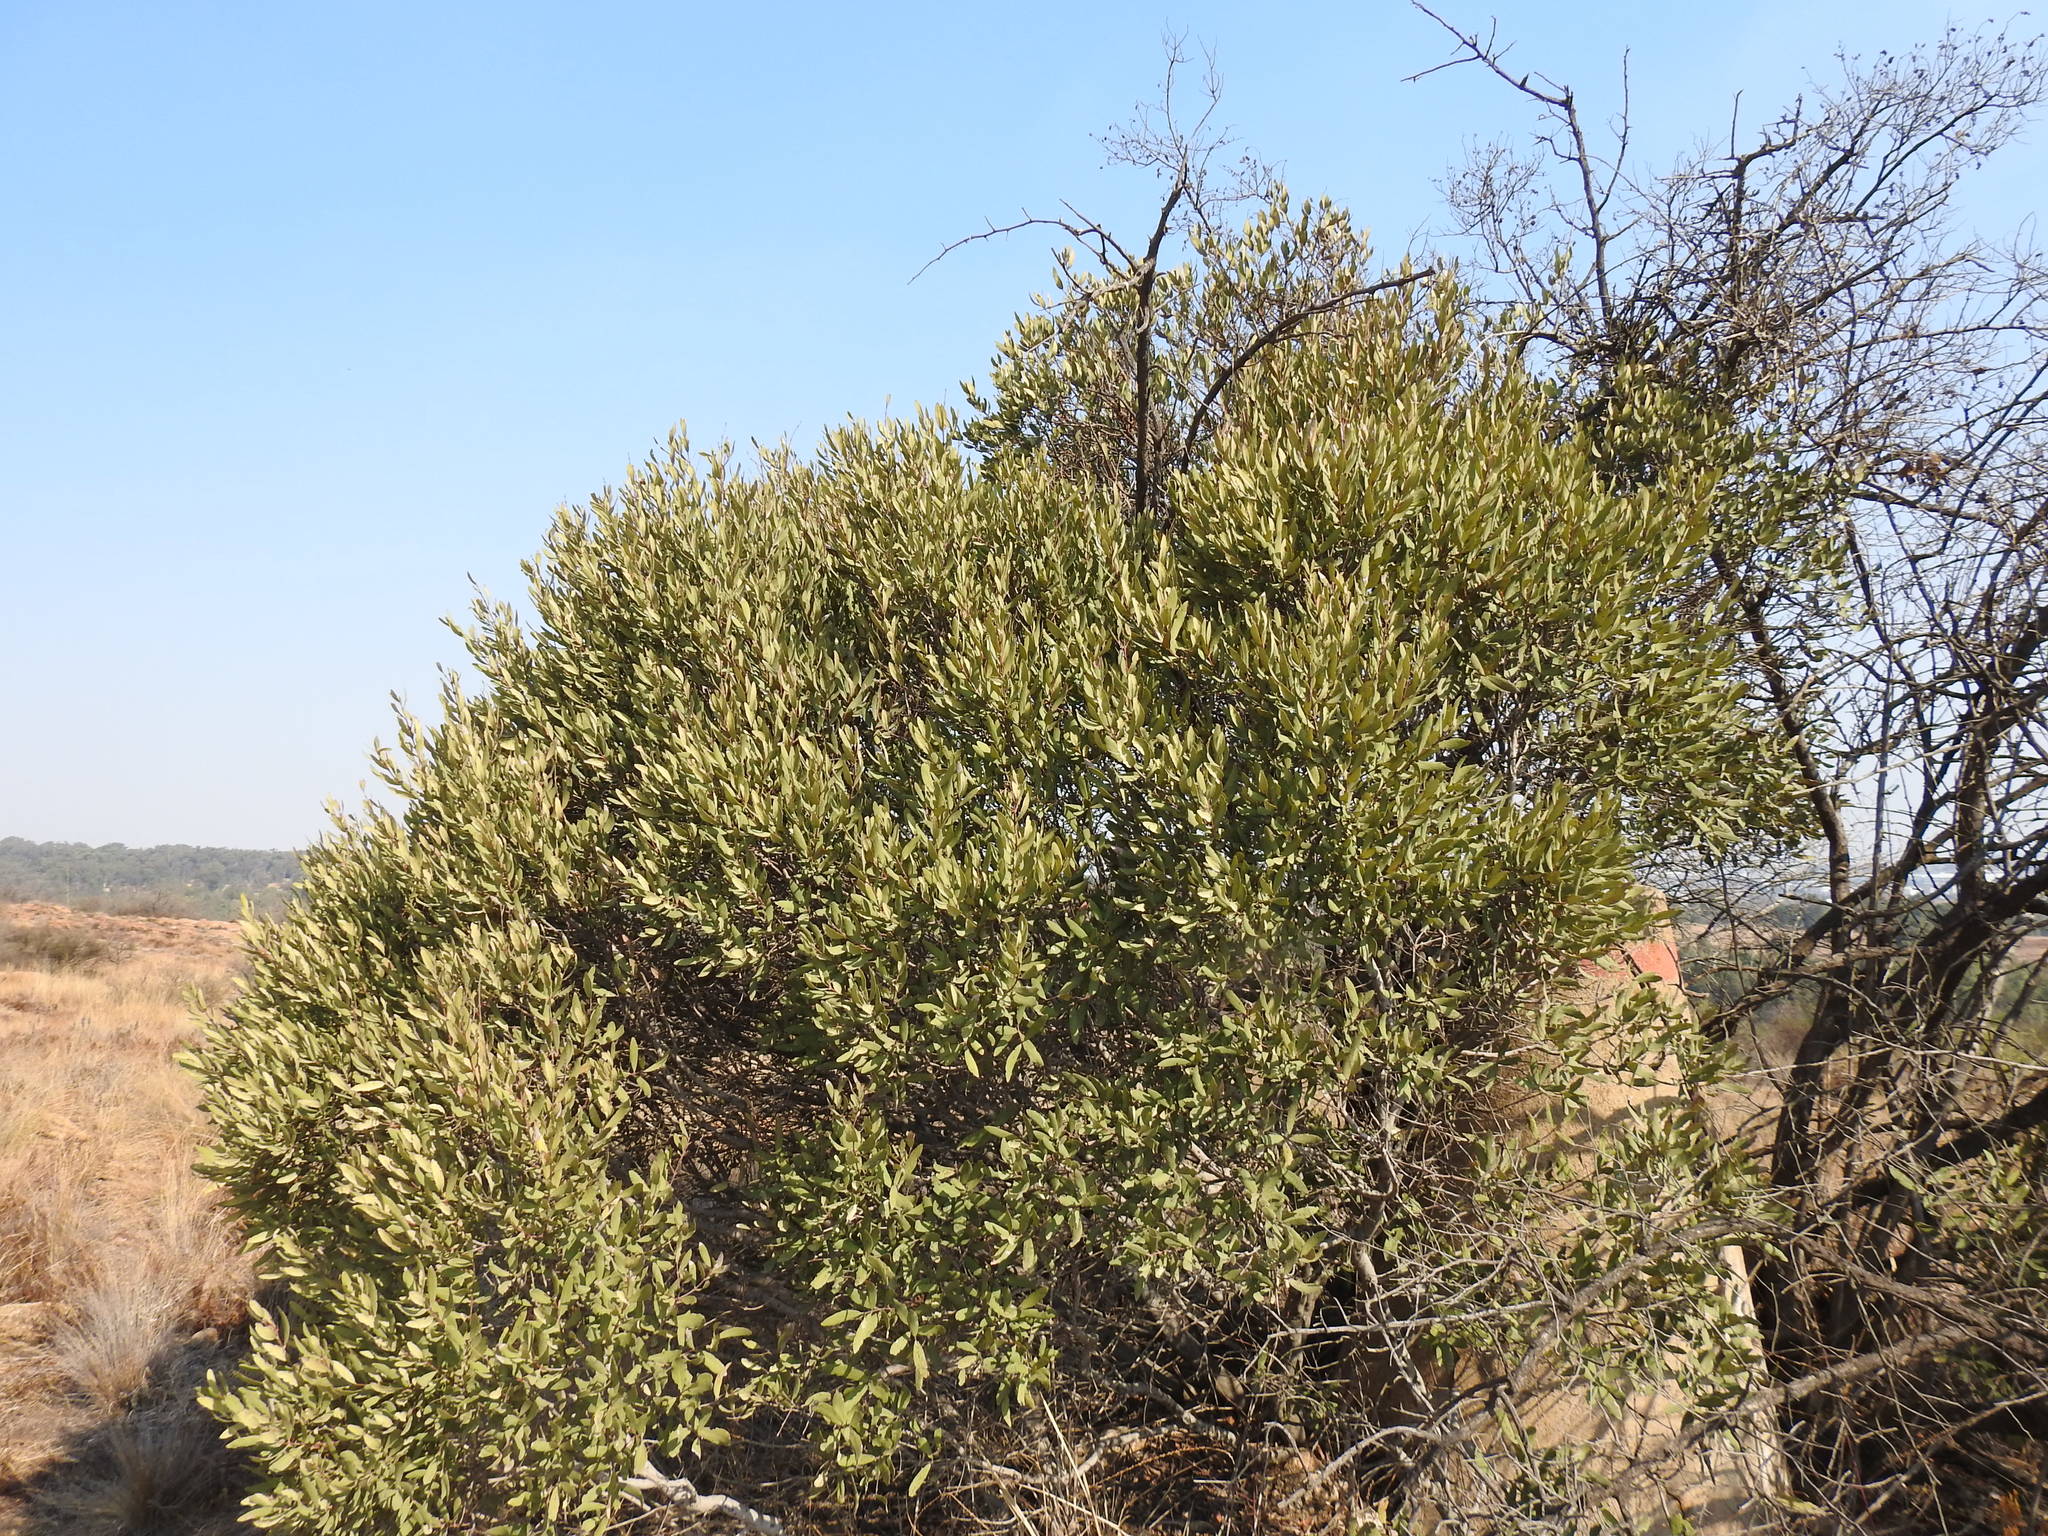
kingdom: Plantae
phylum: Tracheophyta
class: Magnoliopsida
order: Ericales
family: Ebenaceae
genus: Euclea
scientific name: Euclea crispa
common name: Blue guarri
